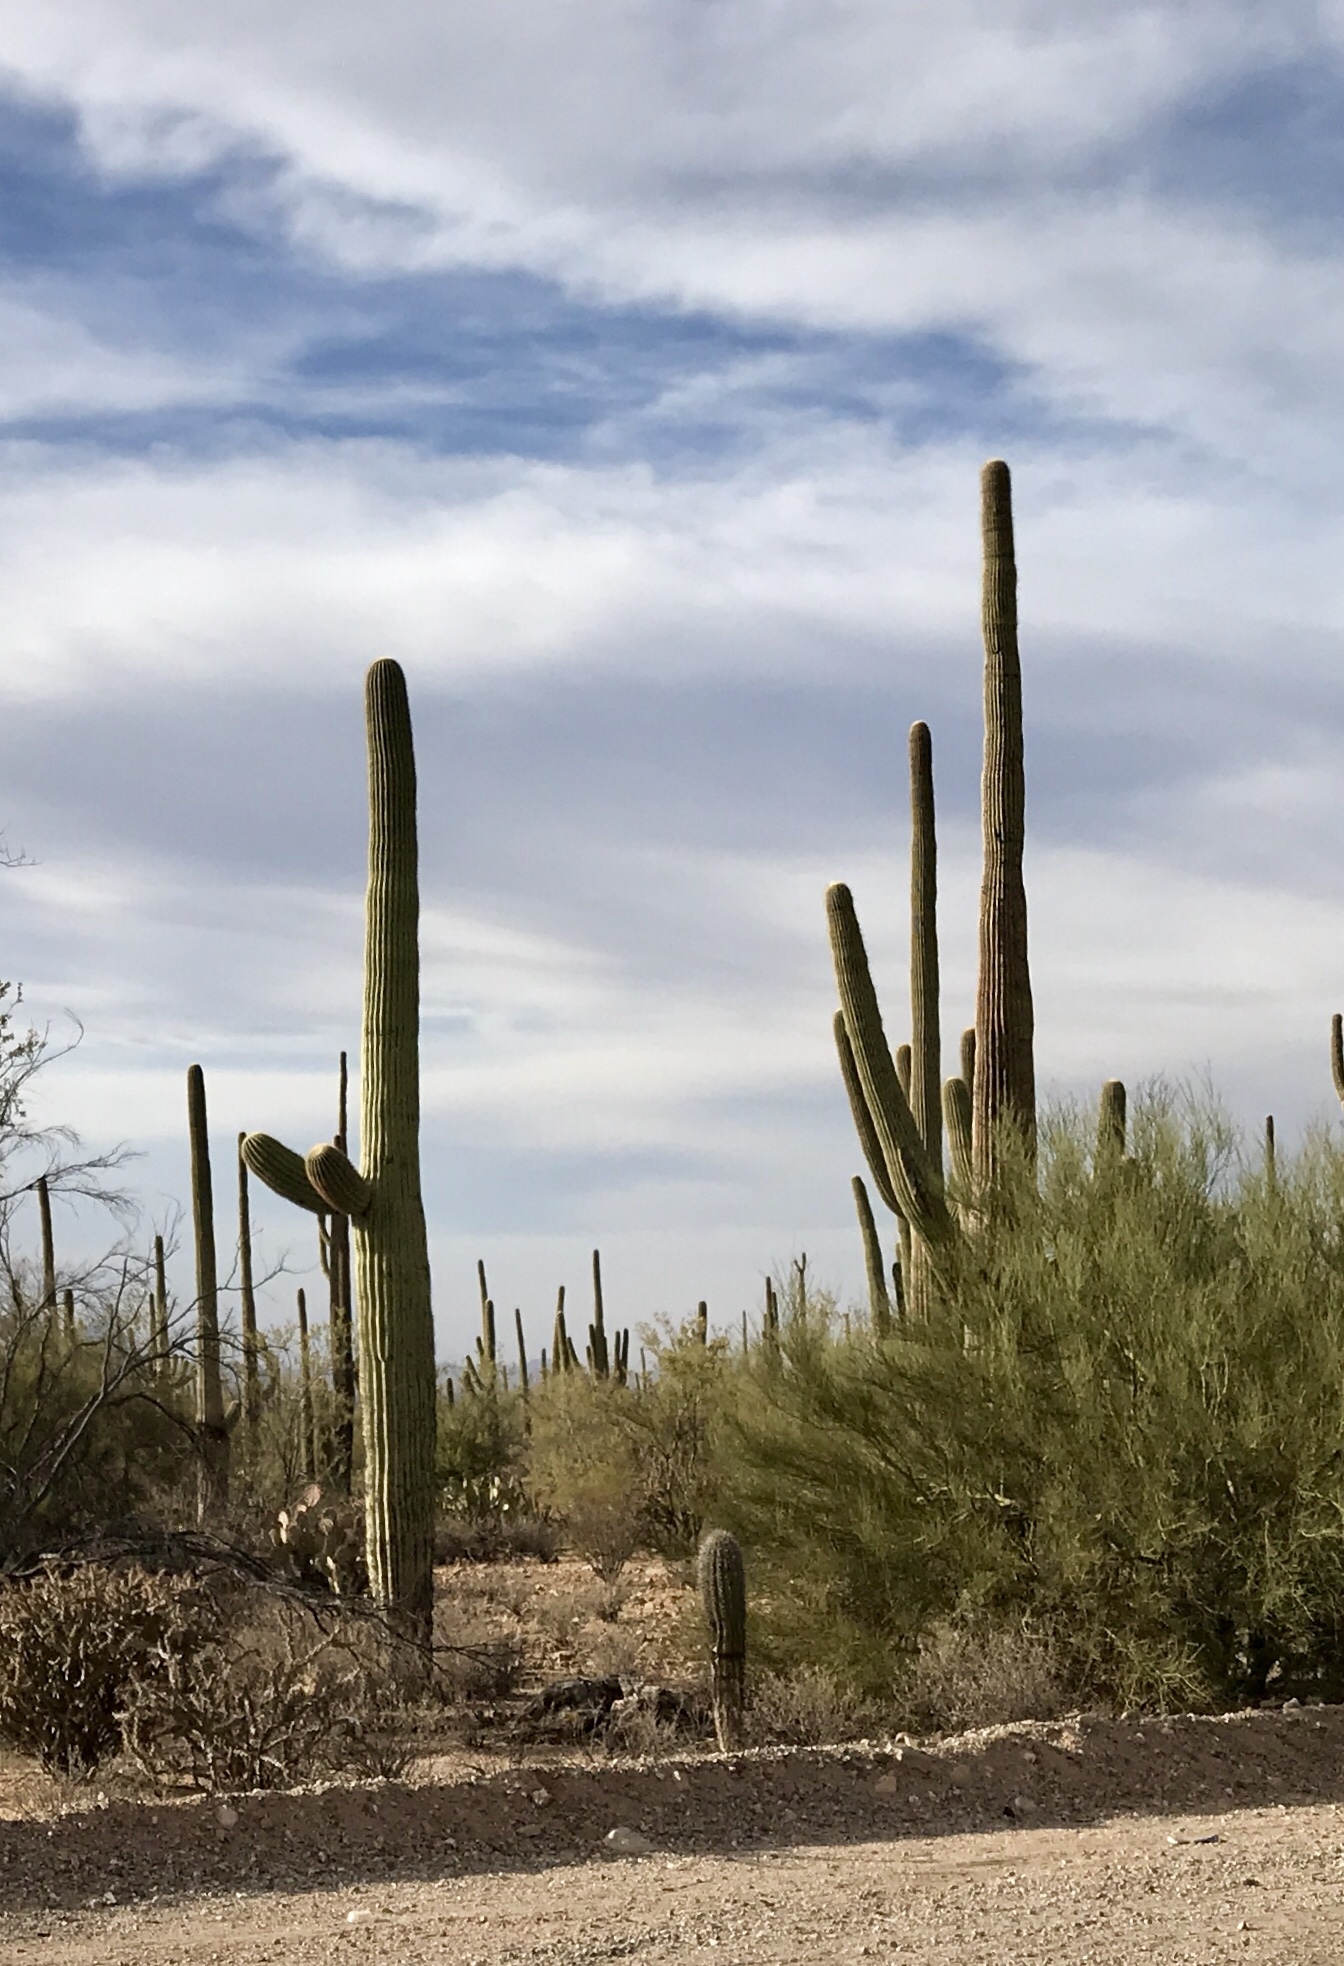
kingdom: Plantae
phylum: Tracheophyta
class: Magnoliopsida
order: Caryophyllales
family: Cactaceae
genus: Carnegiea
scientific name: Carnegiea gigantea
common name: Saguaro
